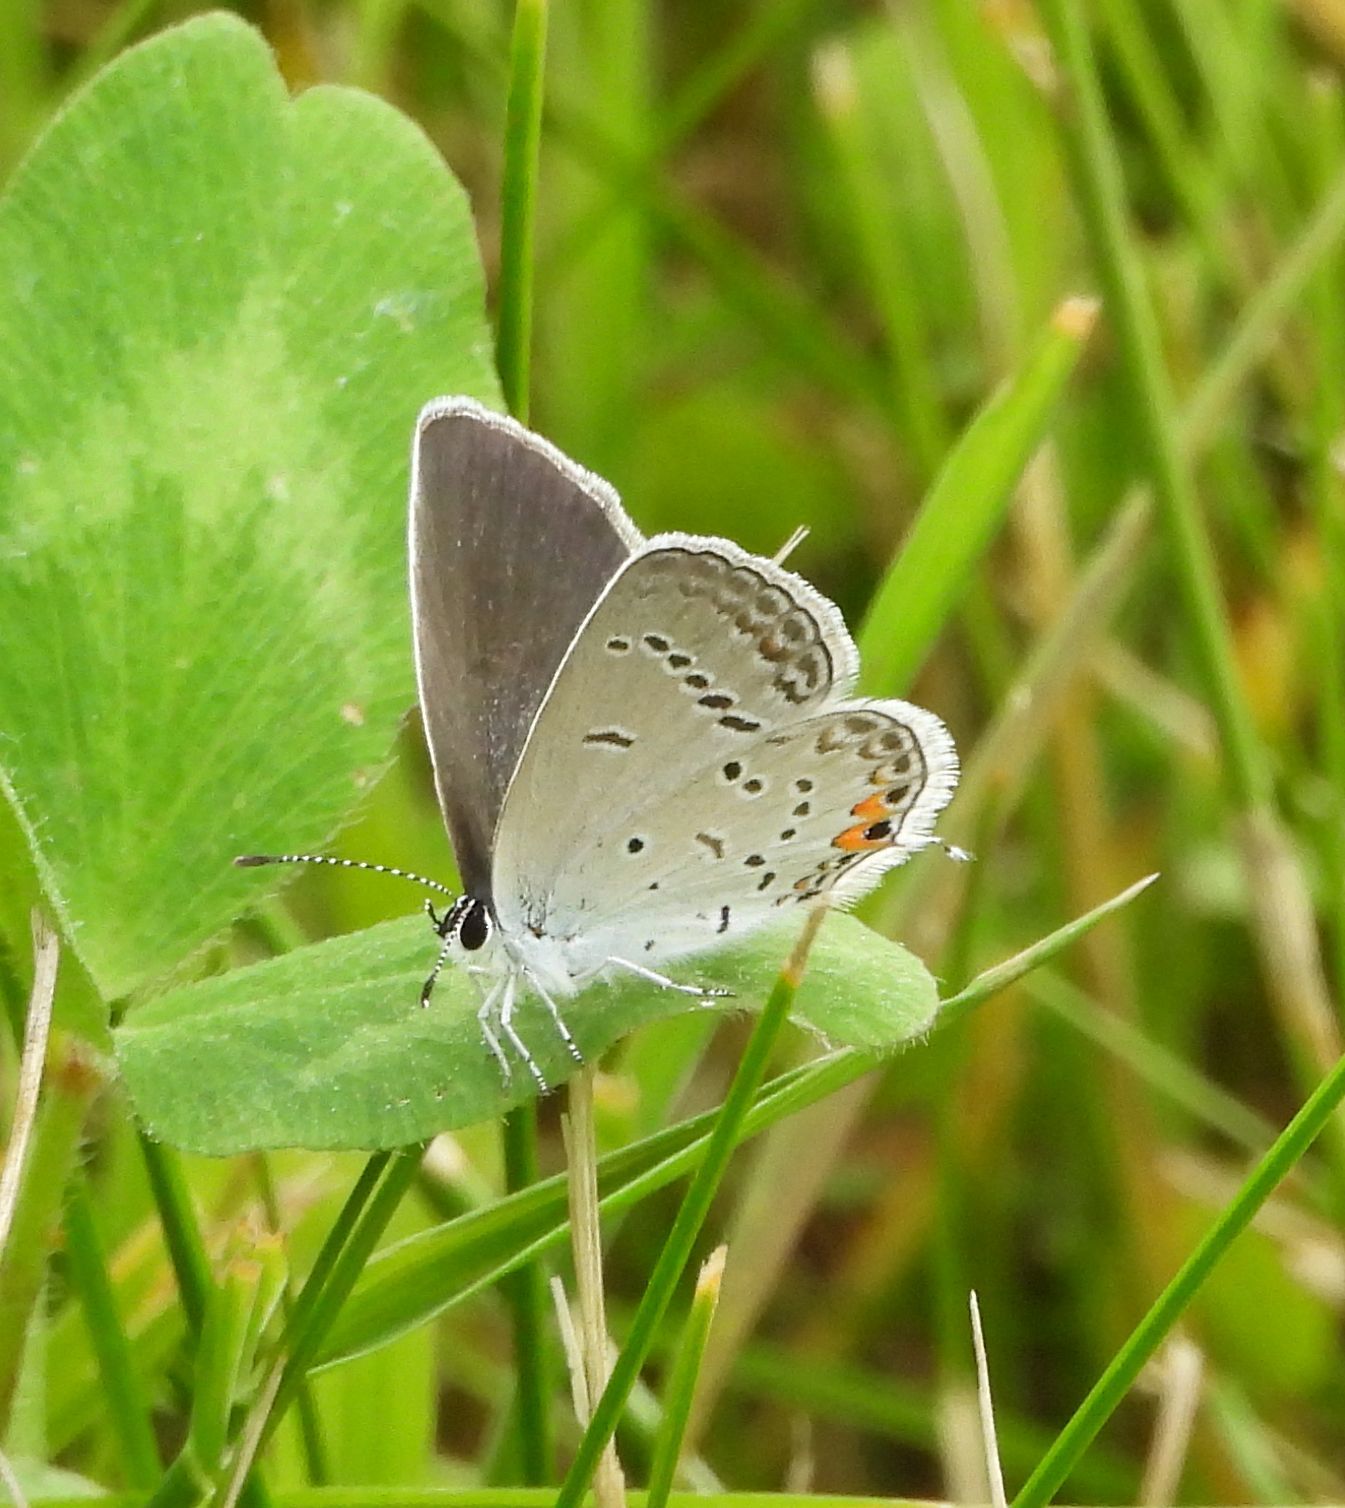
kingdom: Animalia
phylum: Arthropoda
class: Insecta
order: Lepidoptera
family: Lycaenidae
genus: Elkalyce
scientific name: Elkalyce comyntas
